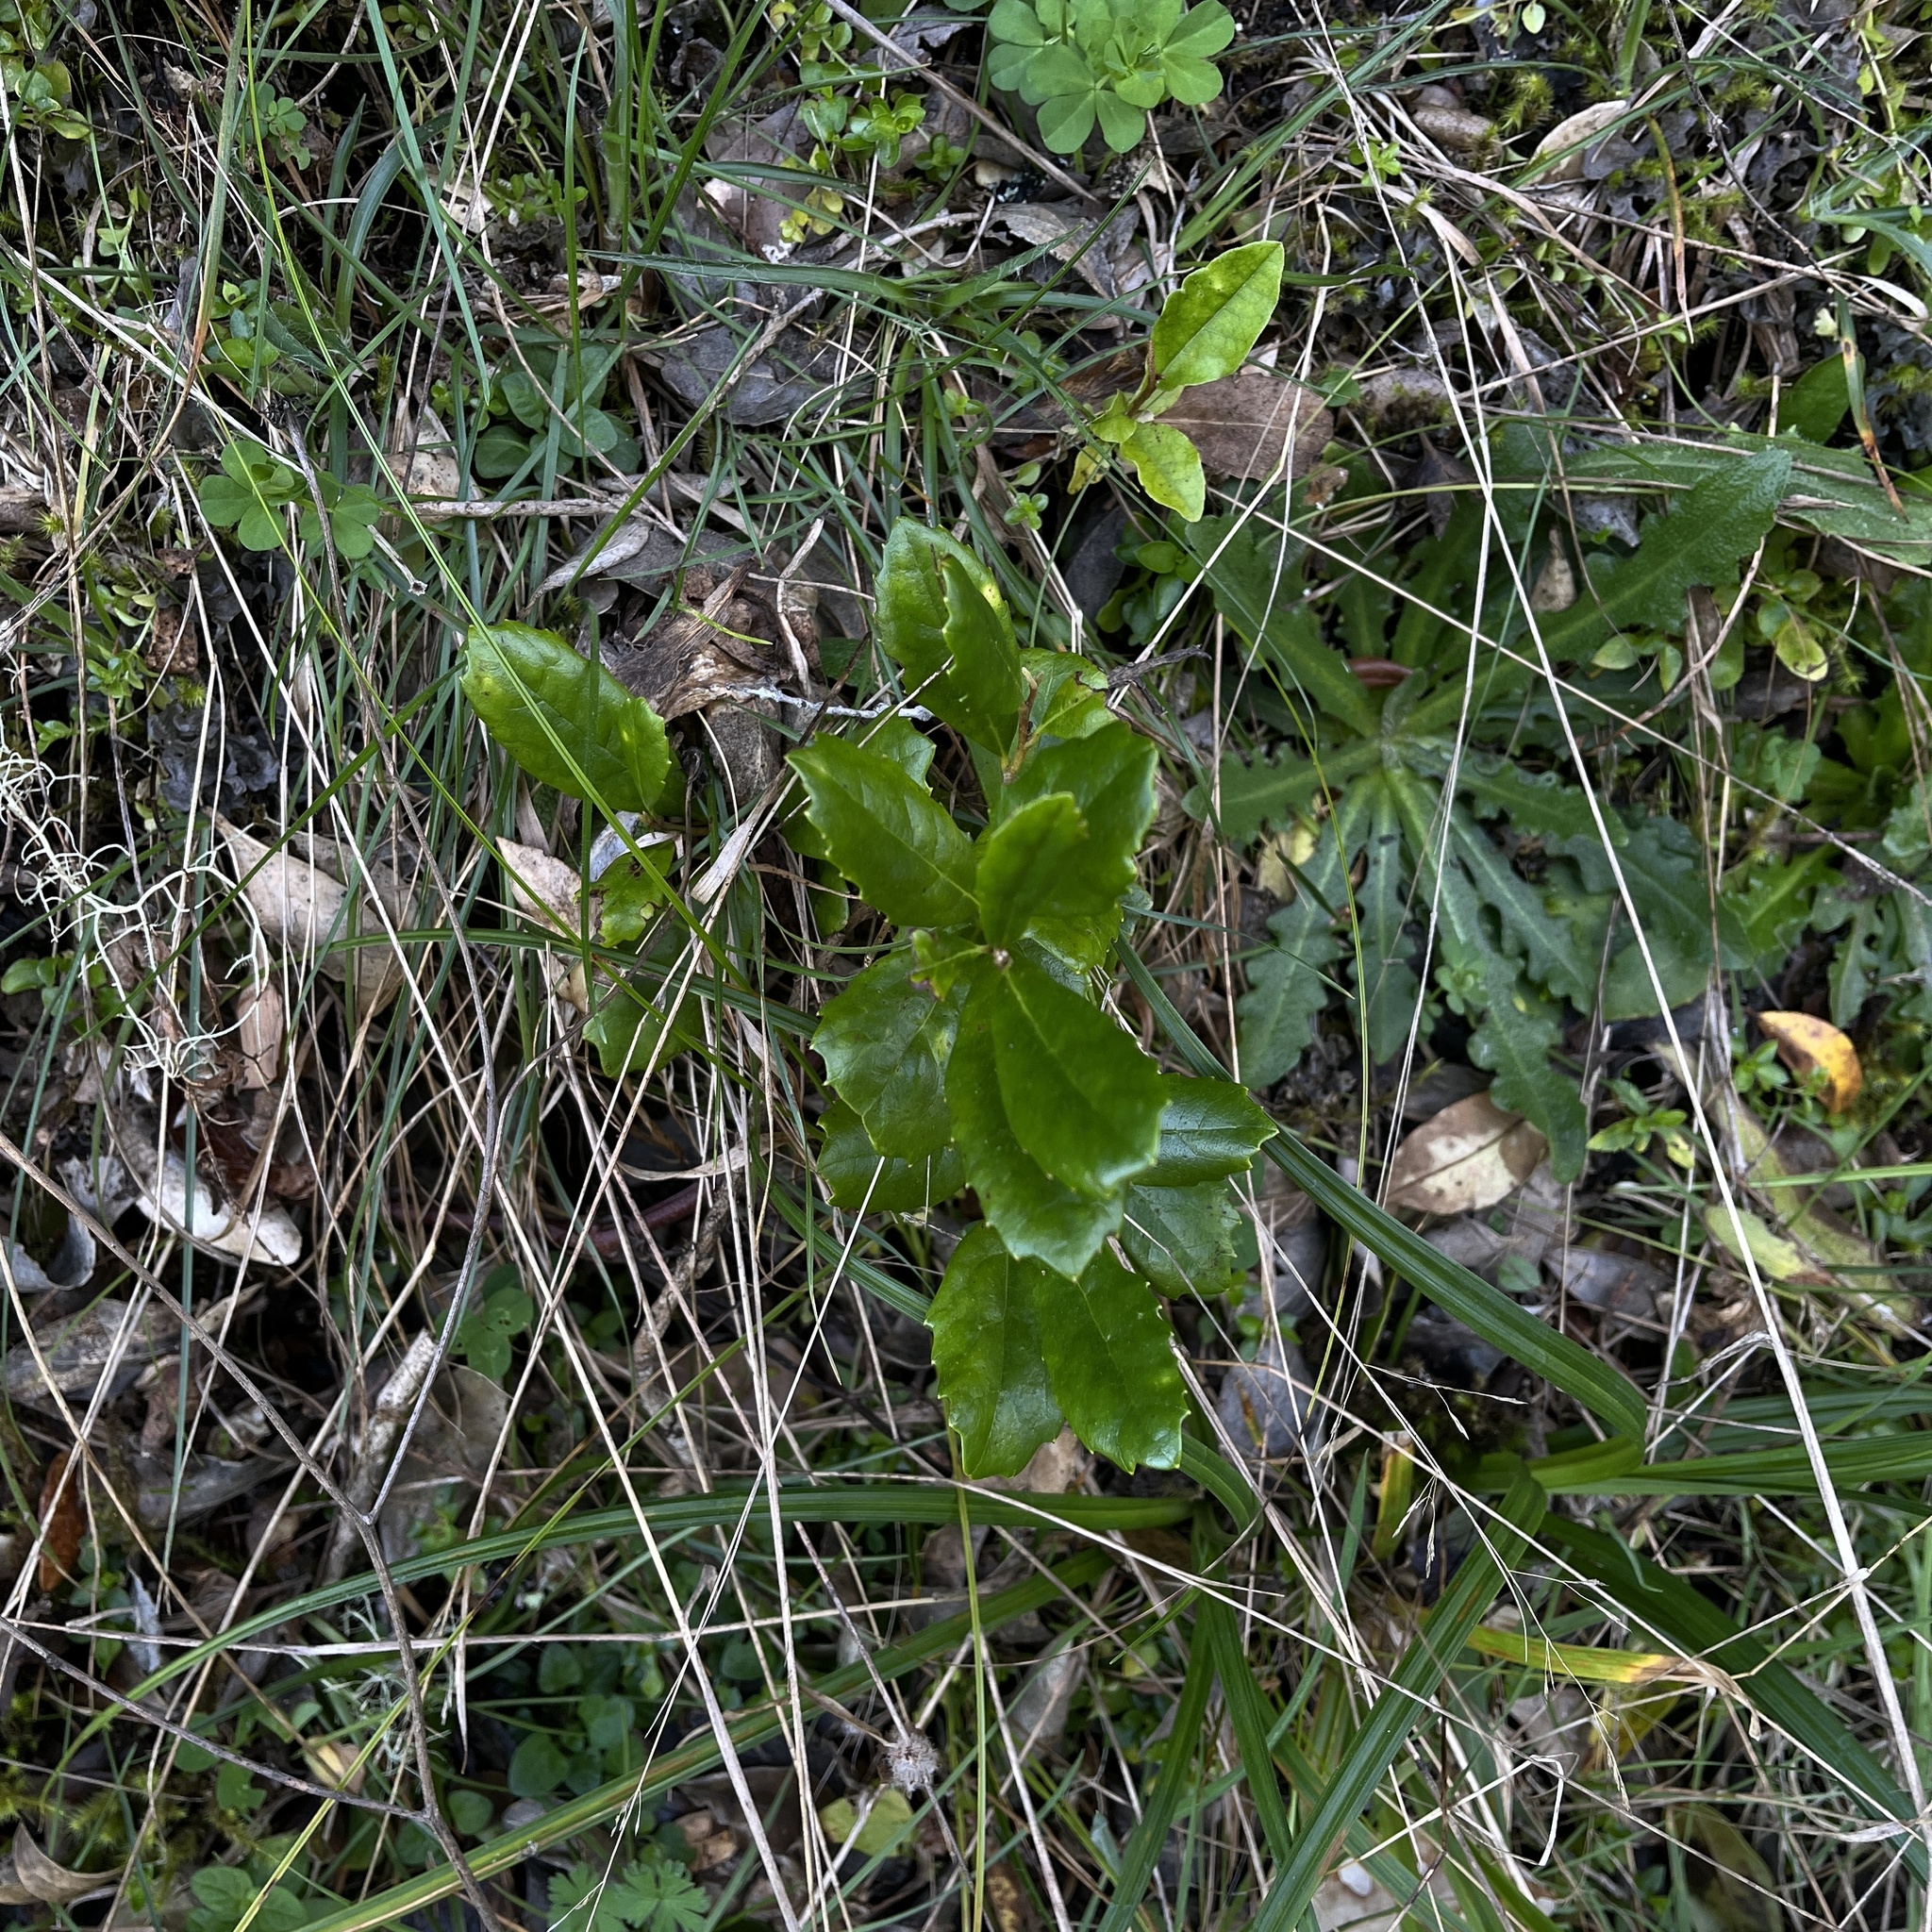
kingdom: Plantae
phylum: Tracheophyta
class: Magnoliopsida
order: Proteales
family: Proteaceae
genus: Lomatia
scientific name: Lomatia dentata
